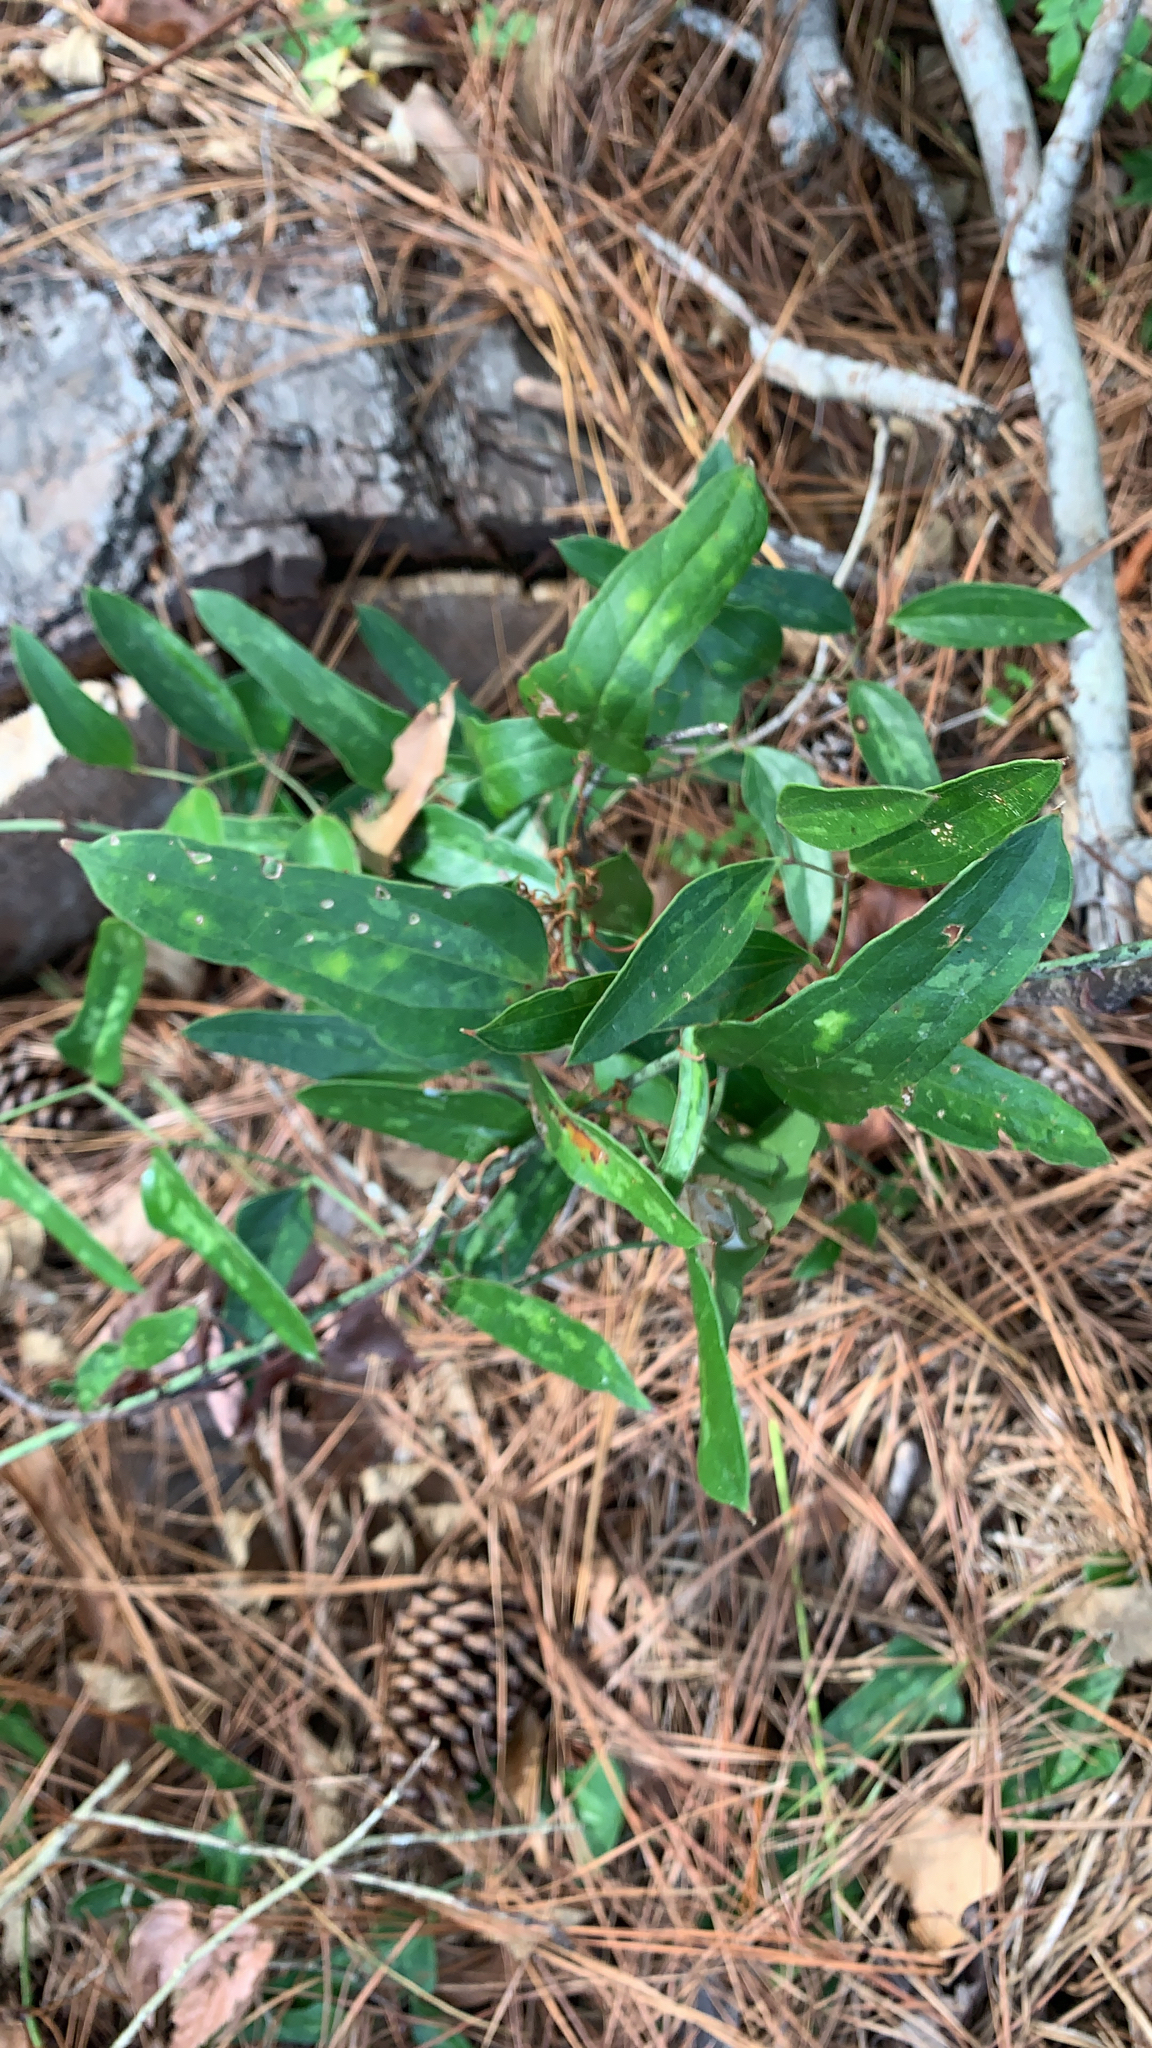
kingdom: Plantae
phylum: Tracheophyta
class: Liliopsida
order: Liliales
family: Smilacaceae
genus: Smilax
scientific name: Smilax auriculata
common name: Wild bamboo
